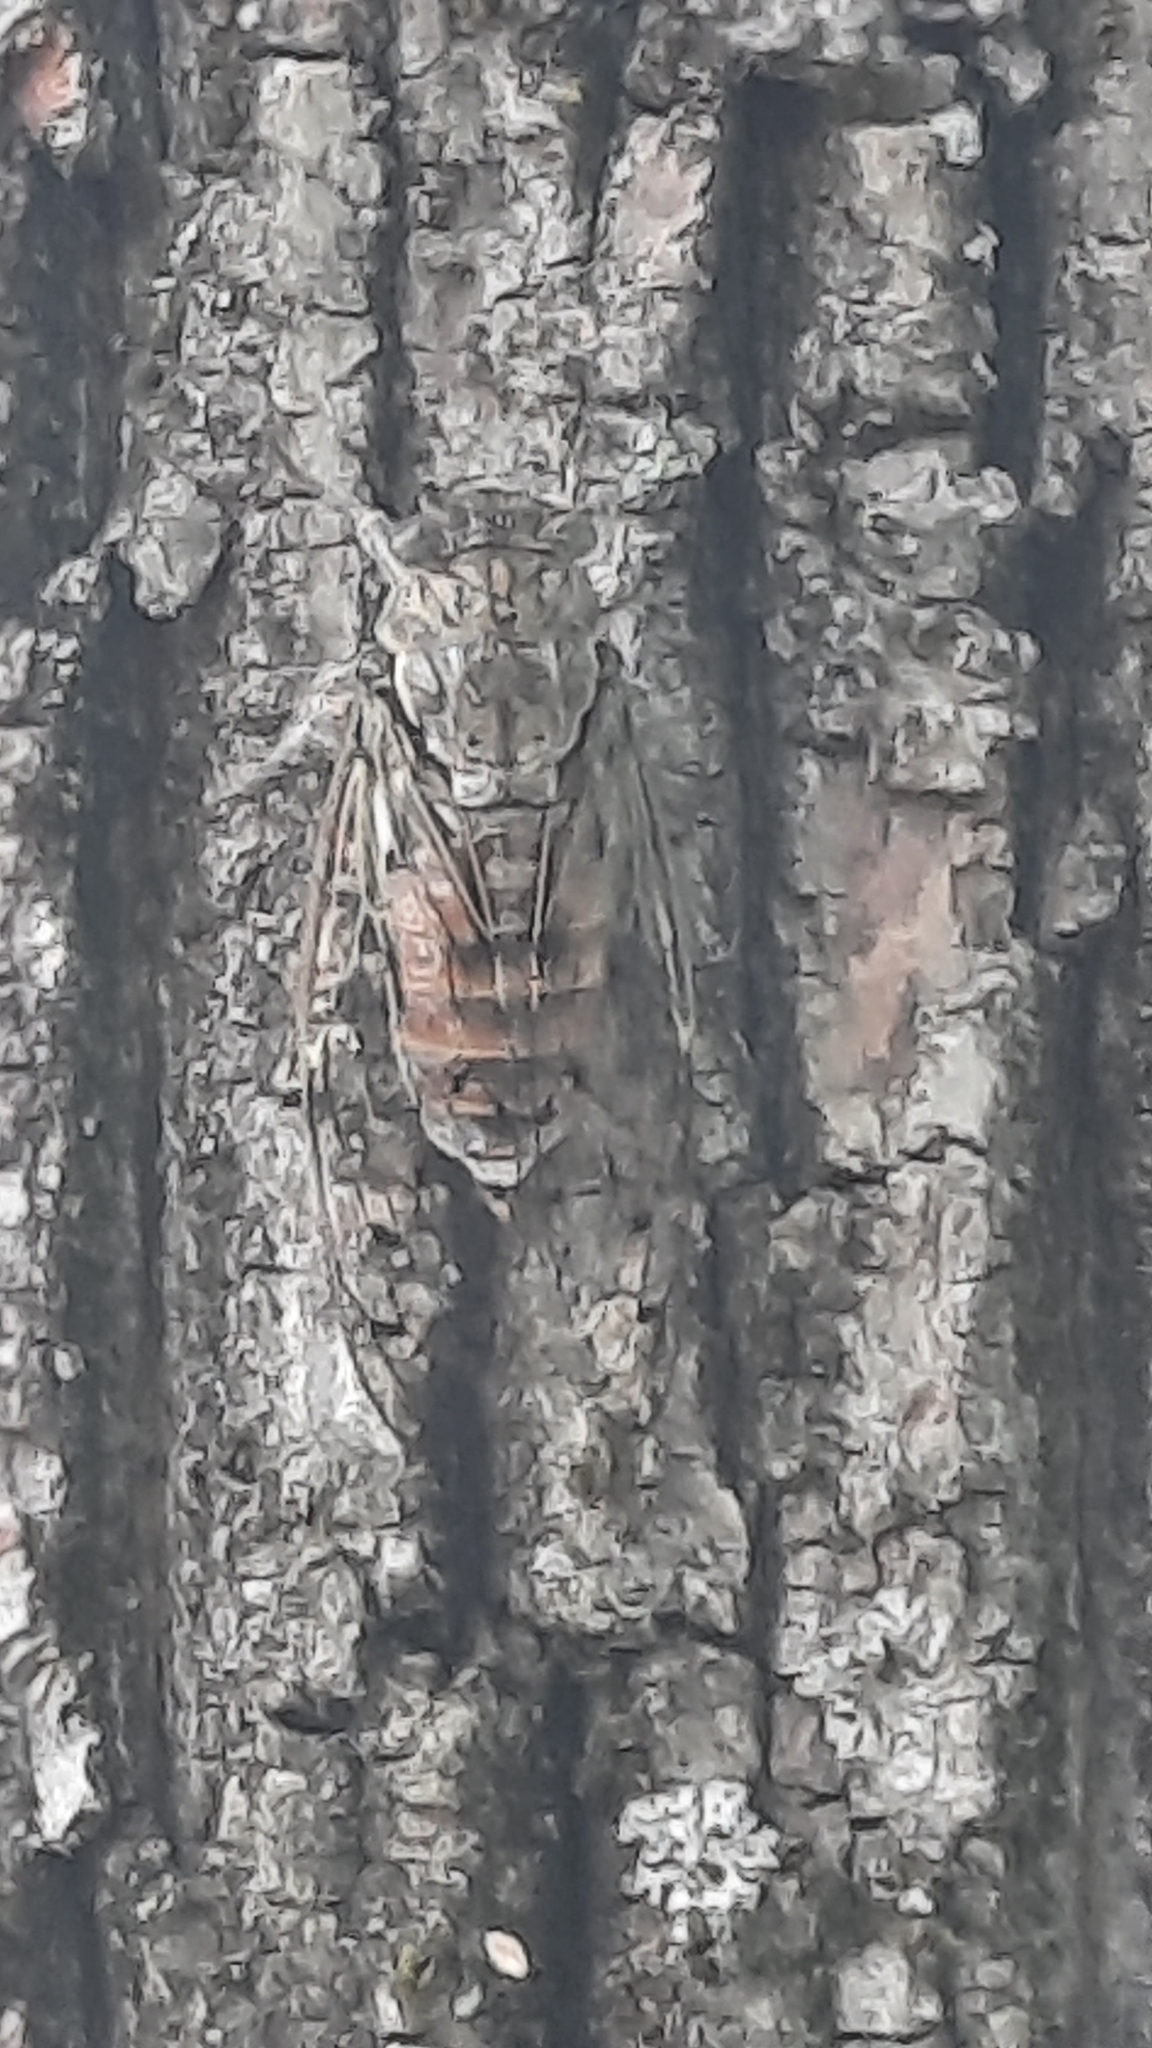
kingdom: Animalia
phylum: Arthropoda
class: Insecta
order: Hemiptera
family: Cicadidae
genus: Cicada
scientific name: Cicada orni
